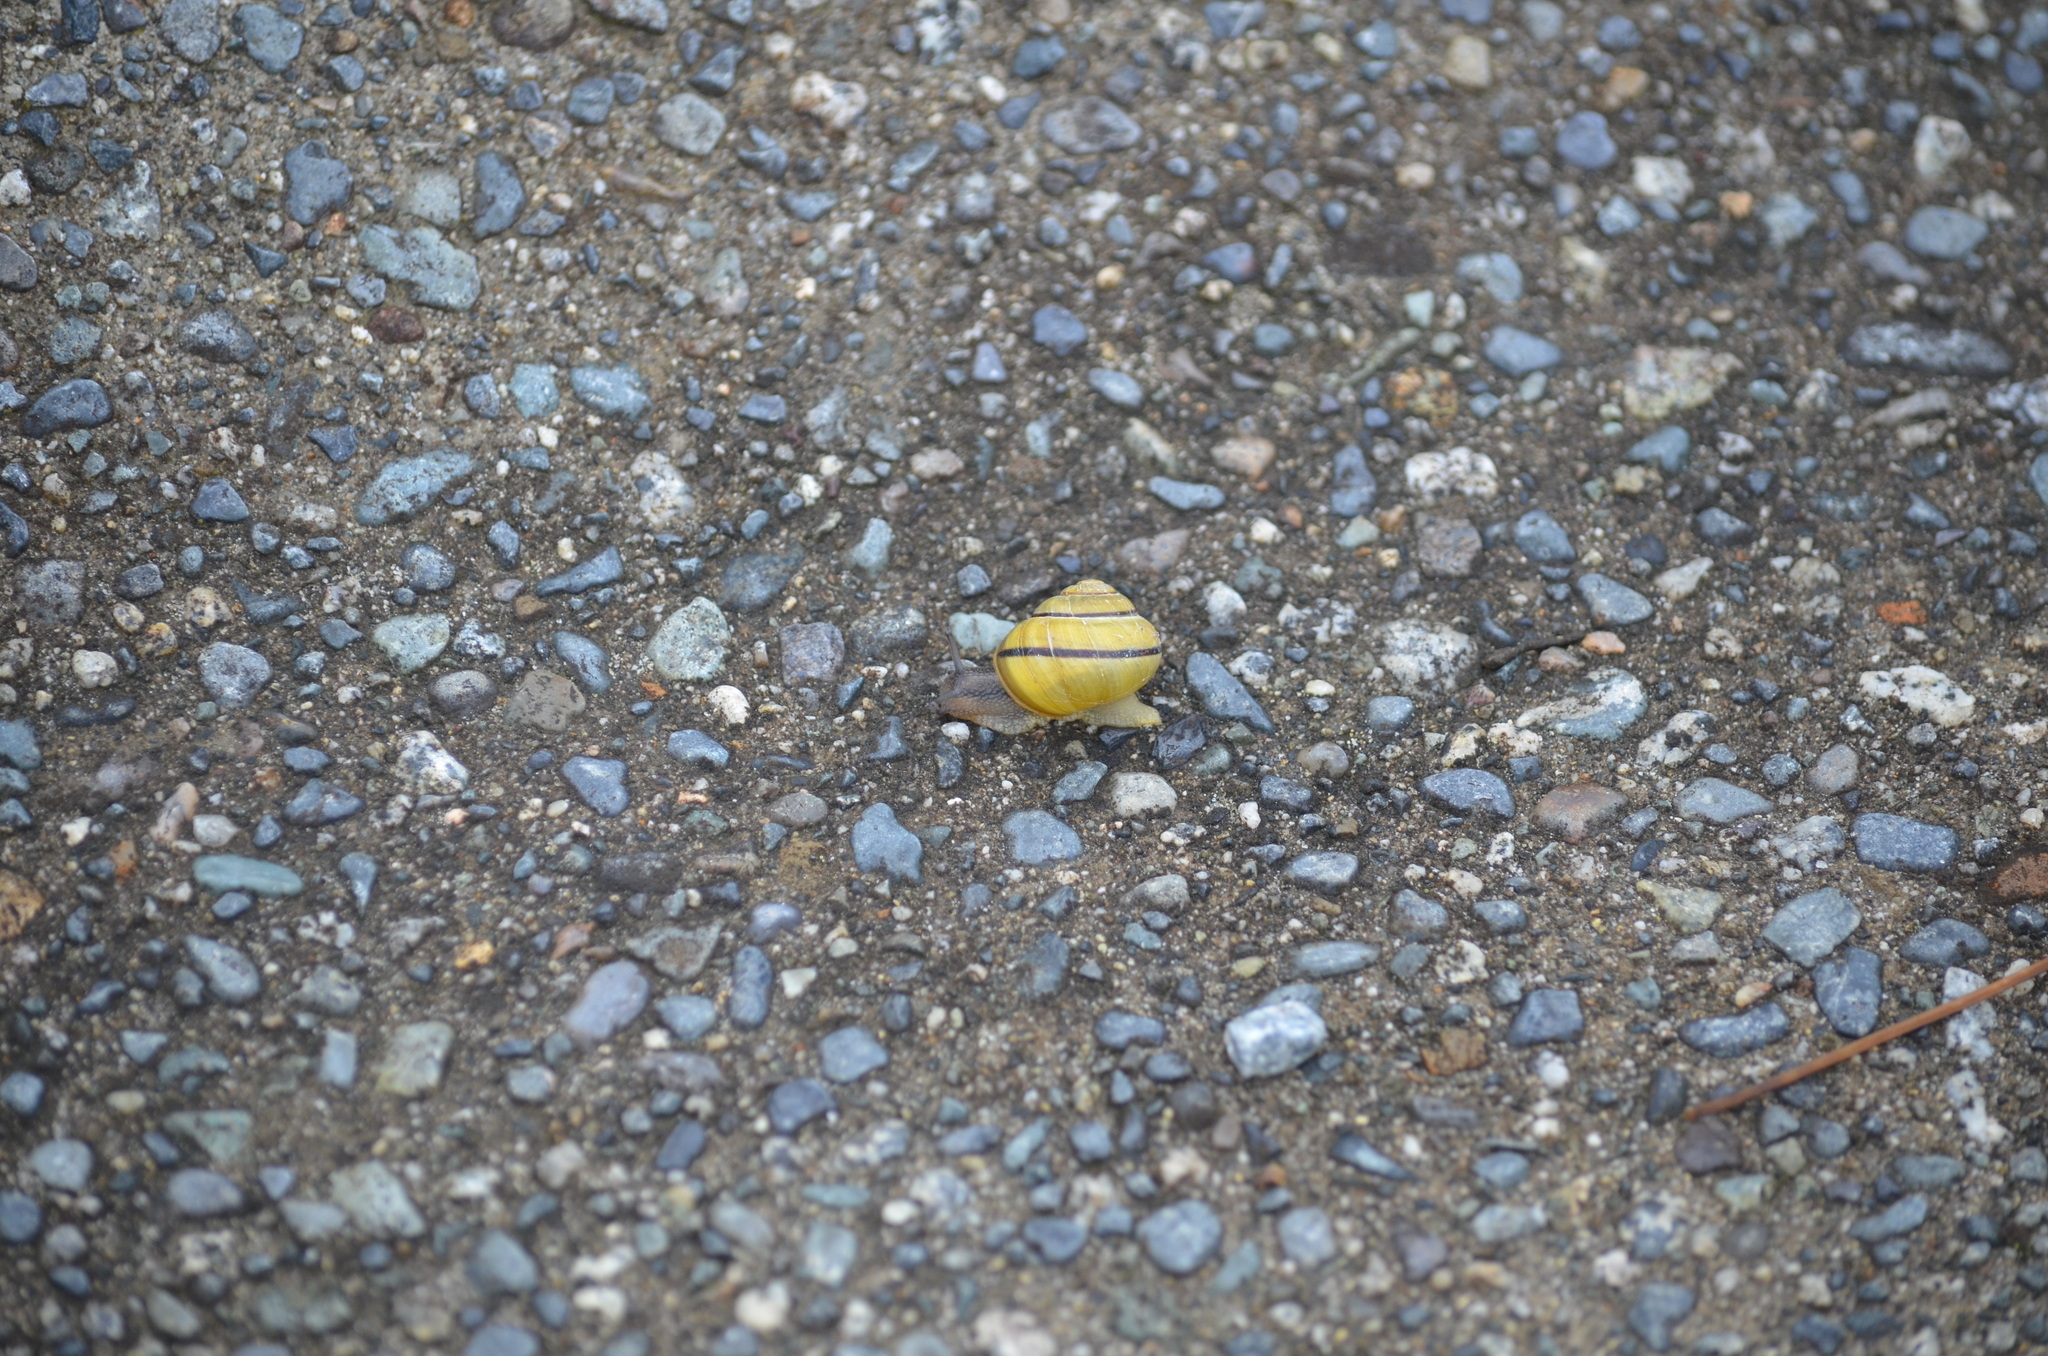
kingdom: Animalia
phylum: Mollusca
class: Gastropoda
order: Stylommatophora
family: Helicidae
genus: Cepaea
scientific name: Cepaea nemoralis
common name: Grovesnail
